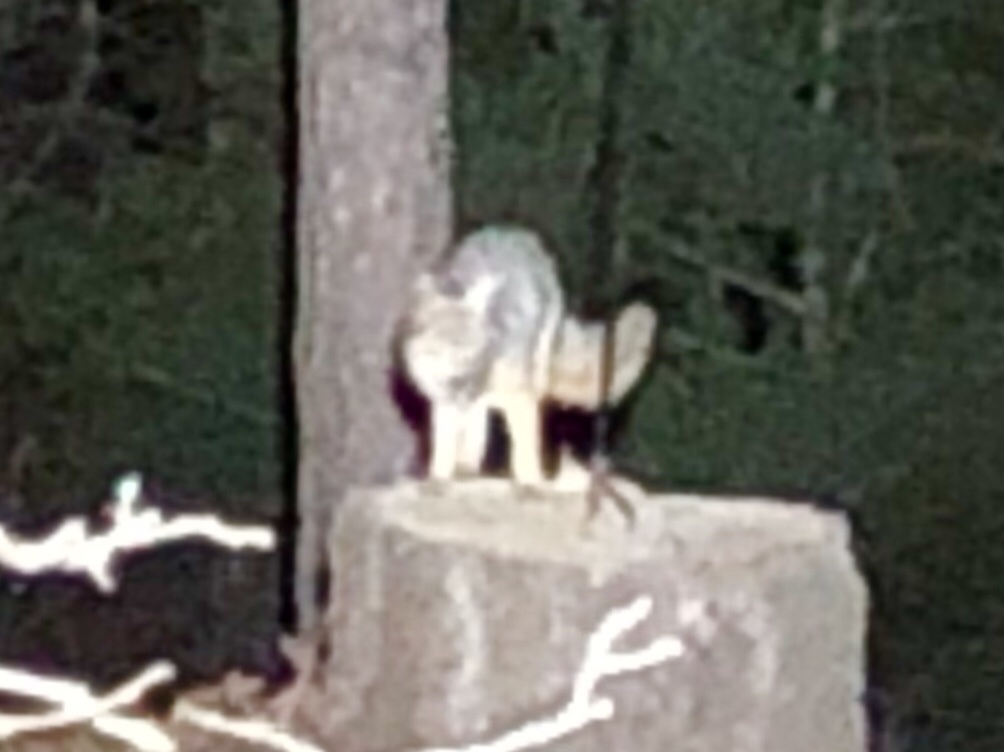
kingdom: Animalia
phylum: Chordata
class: Mammalia
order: Carnivora
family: Canidae
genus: Urocyon
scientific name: Urocyon cinereoargenteus
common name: Gray fox
